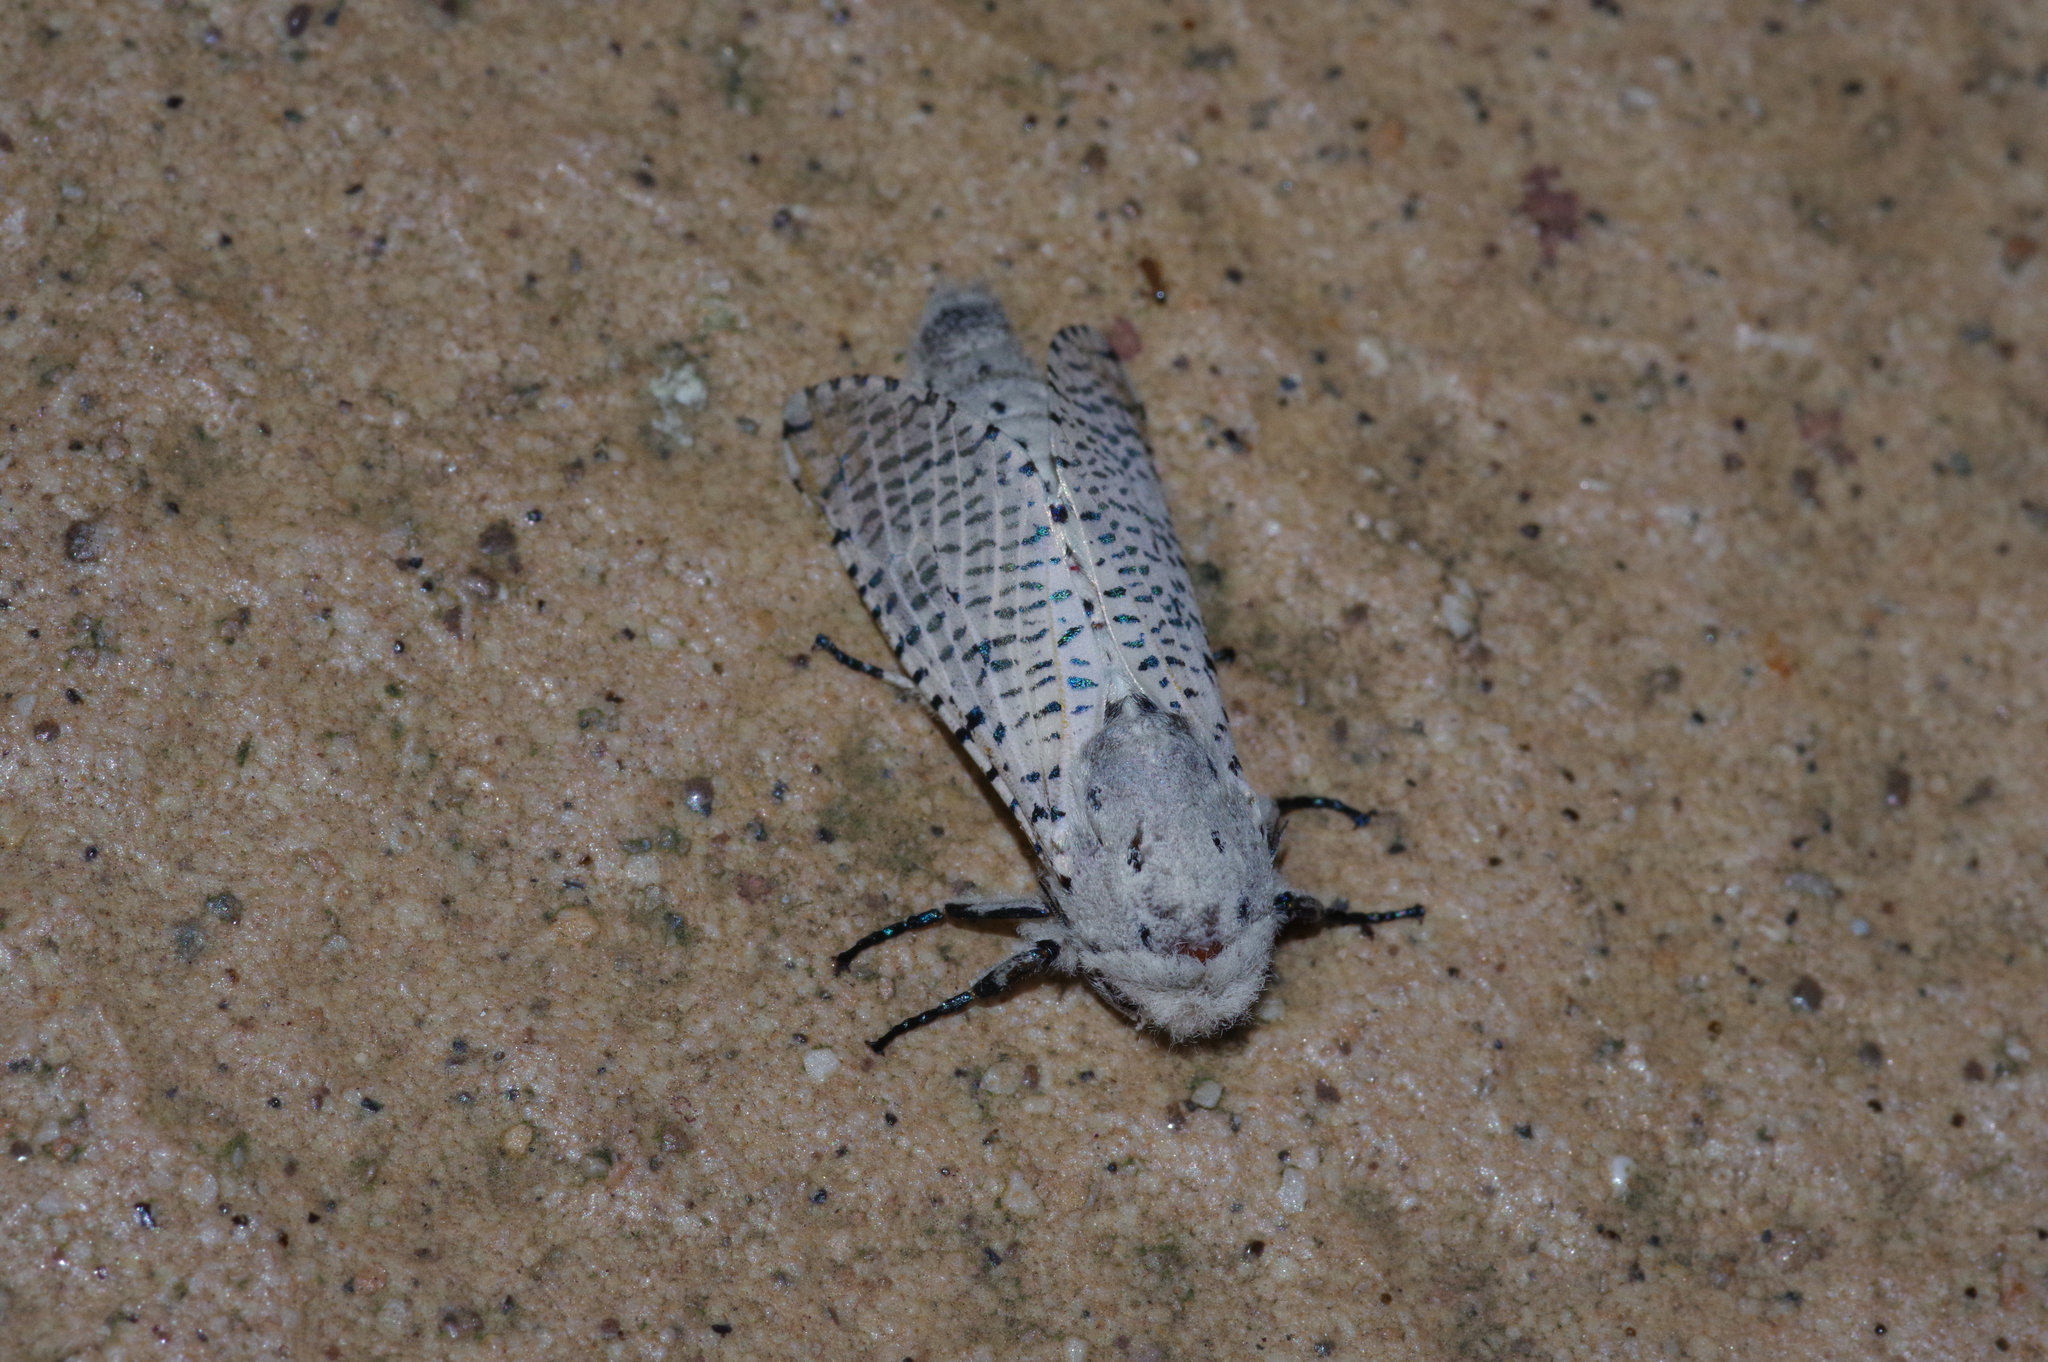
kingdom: Animalia
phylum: Arthropoda
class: Insecta
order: Lepidoptera
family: Cossidae
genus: Orientozeuzera
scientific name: Orientozeuzera caudata
